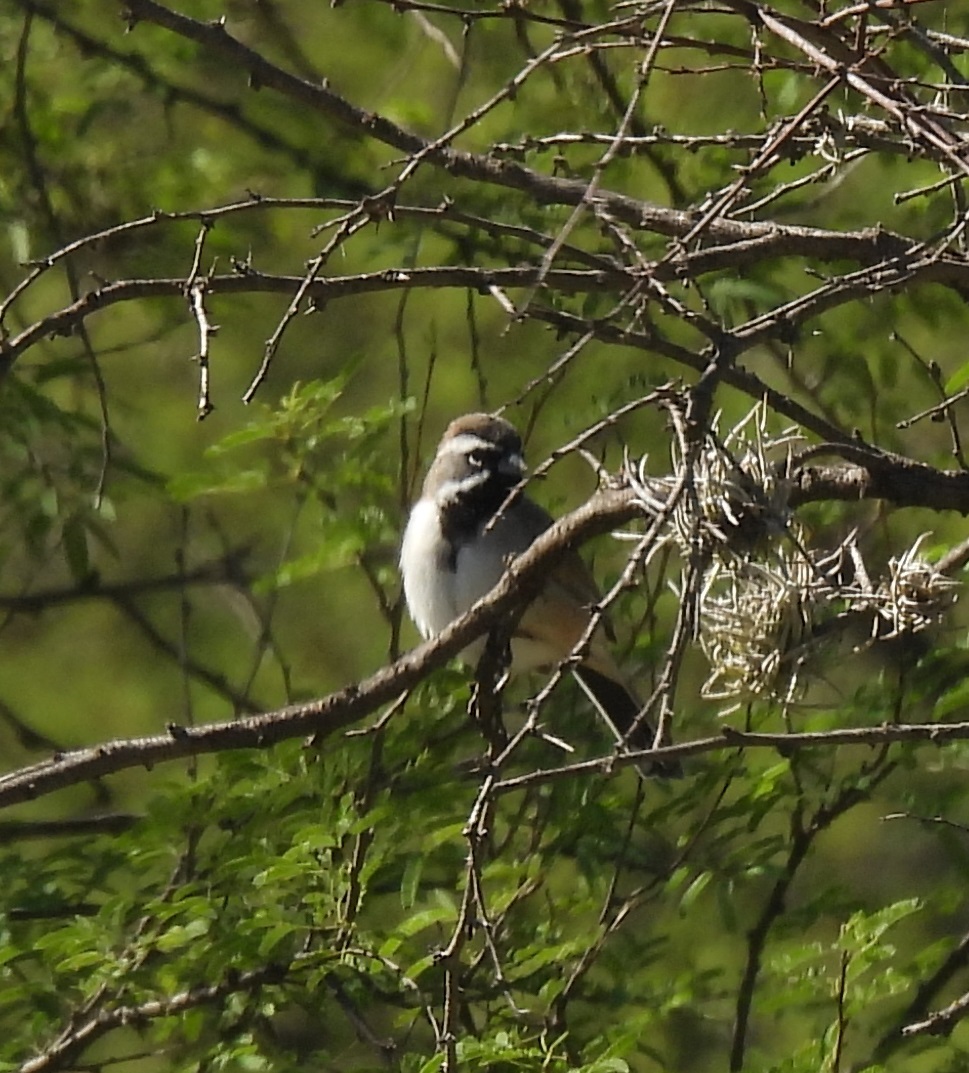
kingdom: Animalia
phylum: Chordata
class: Aves
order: Passeriformes
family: Passerellidae
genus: Amphispiza
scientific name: Amphispiza bilineata
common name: Black-throated sparrow
